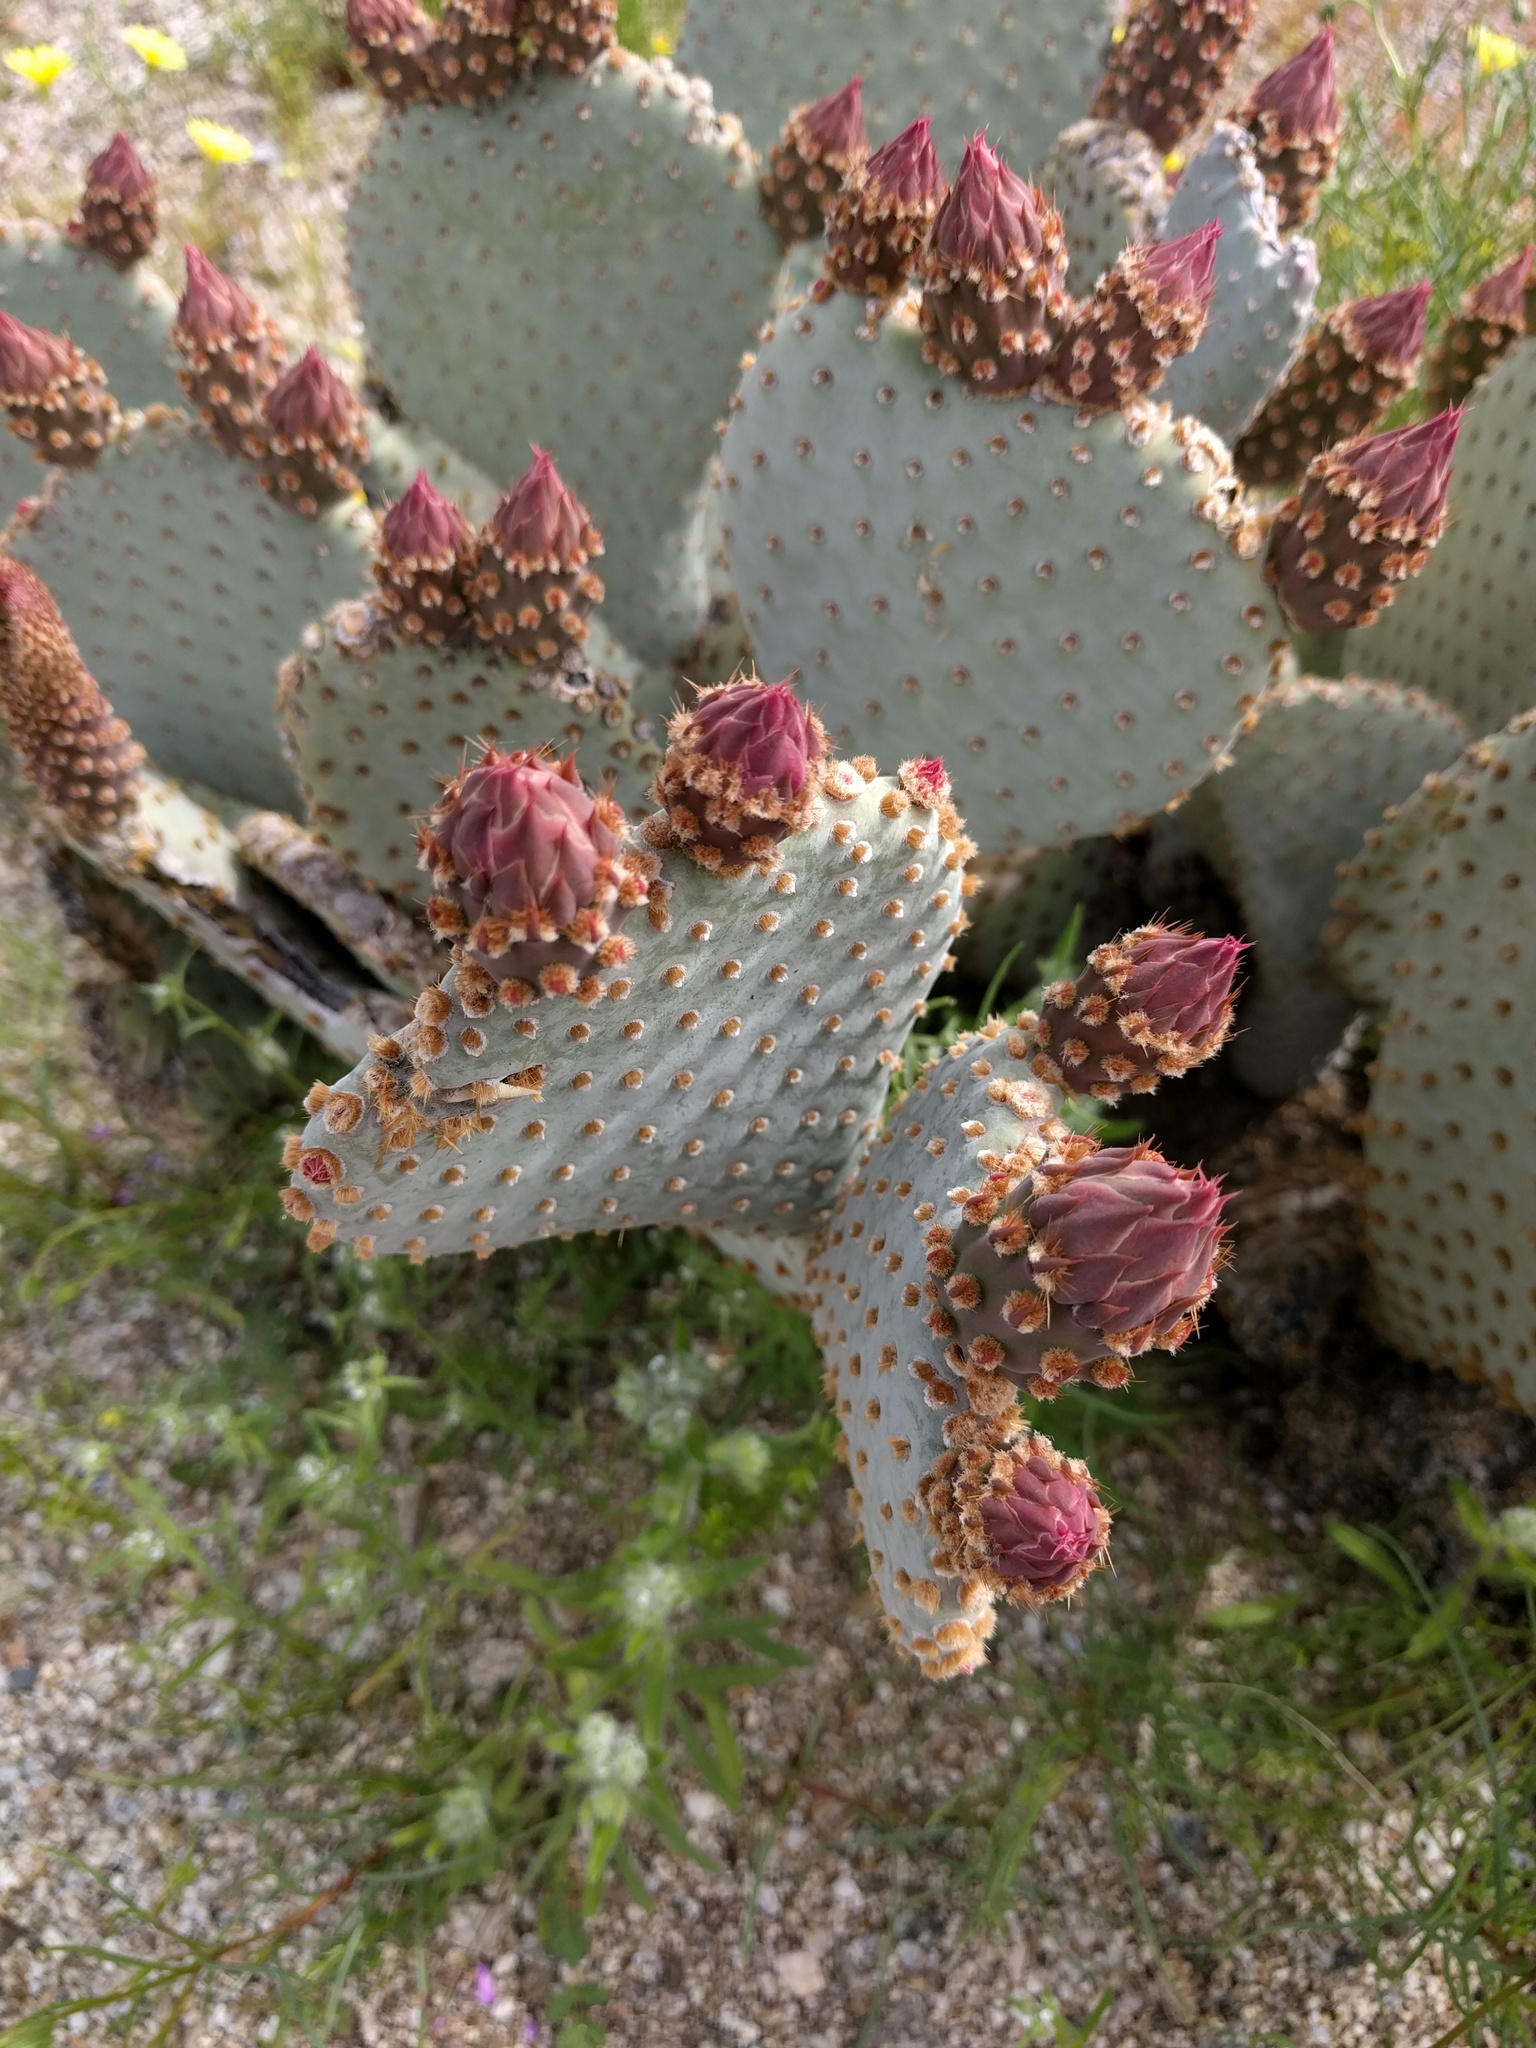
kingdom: Plantae
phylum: Tracheophyta
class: Magnoliopsida
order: Caryophyllales
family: Cactaceae
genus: Opuntia
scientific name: Opuntia basilaris
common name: Beavertail prickly-pear
